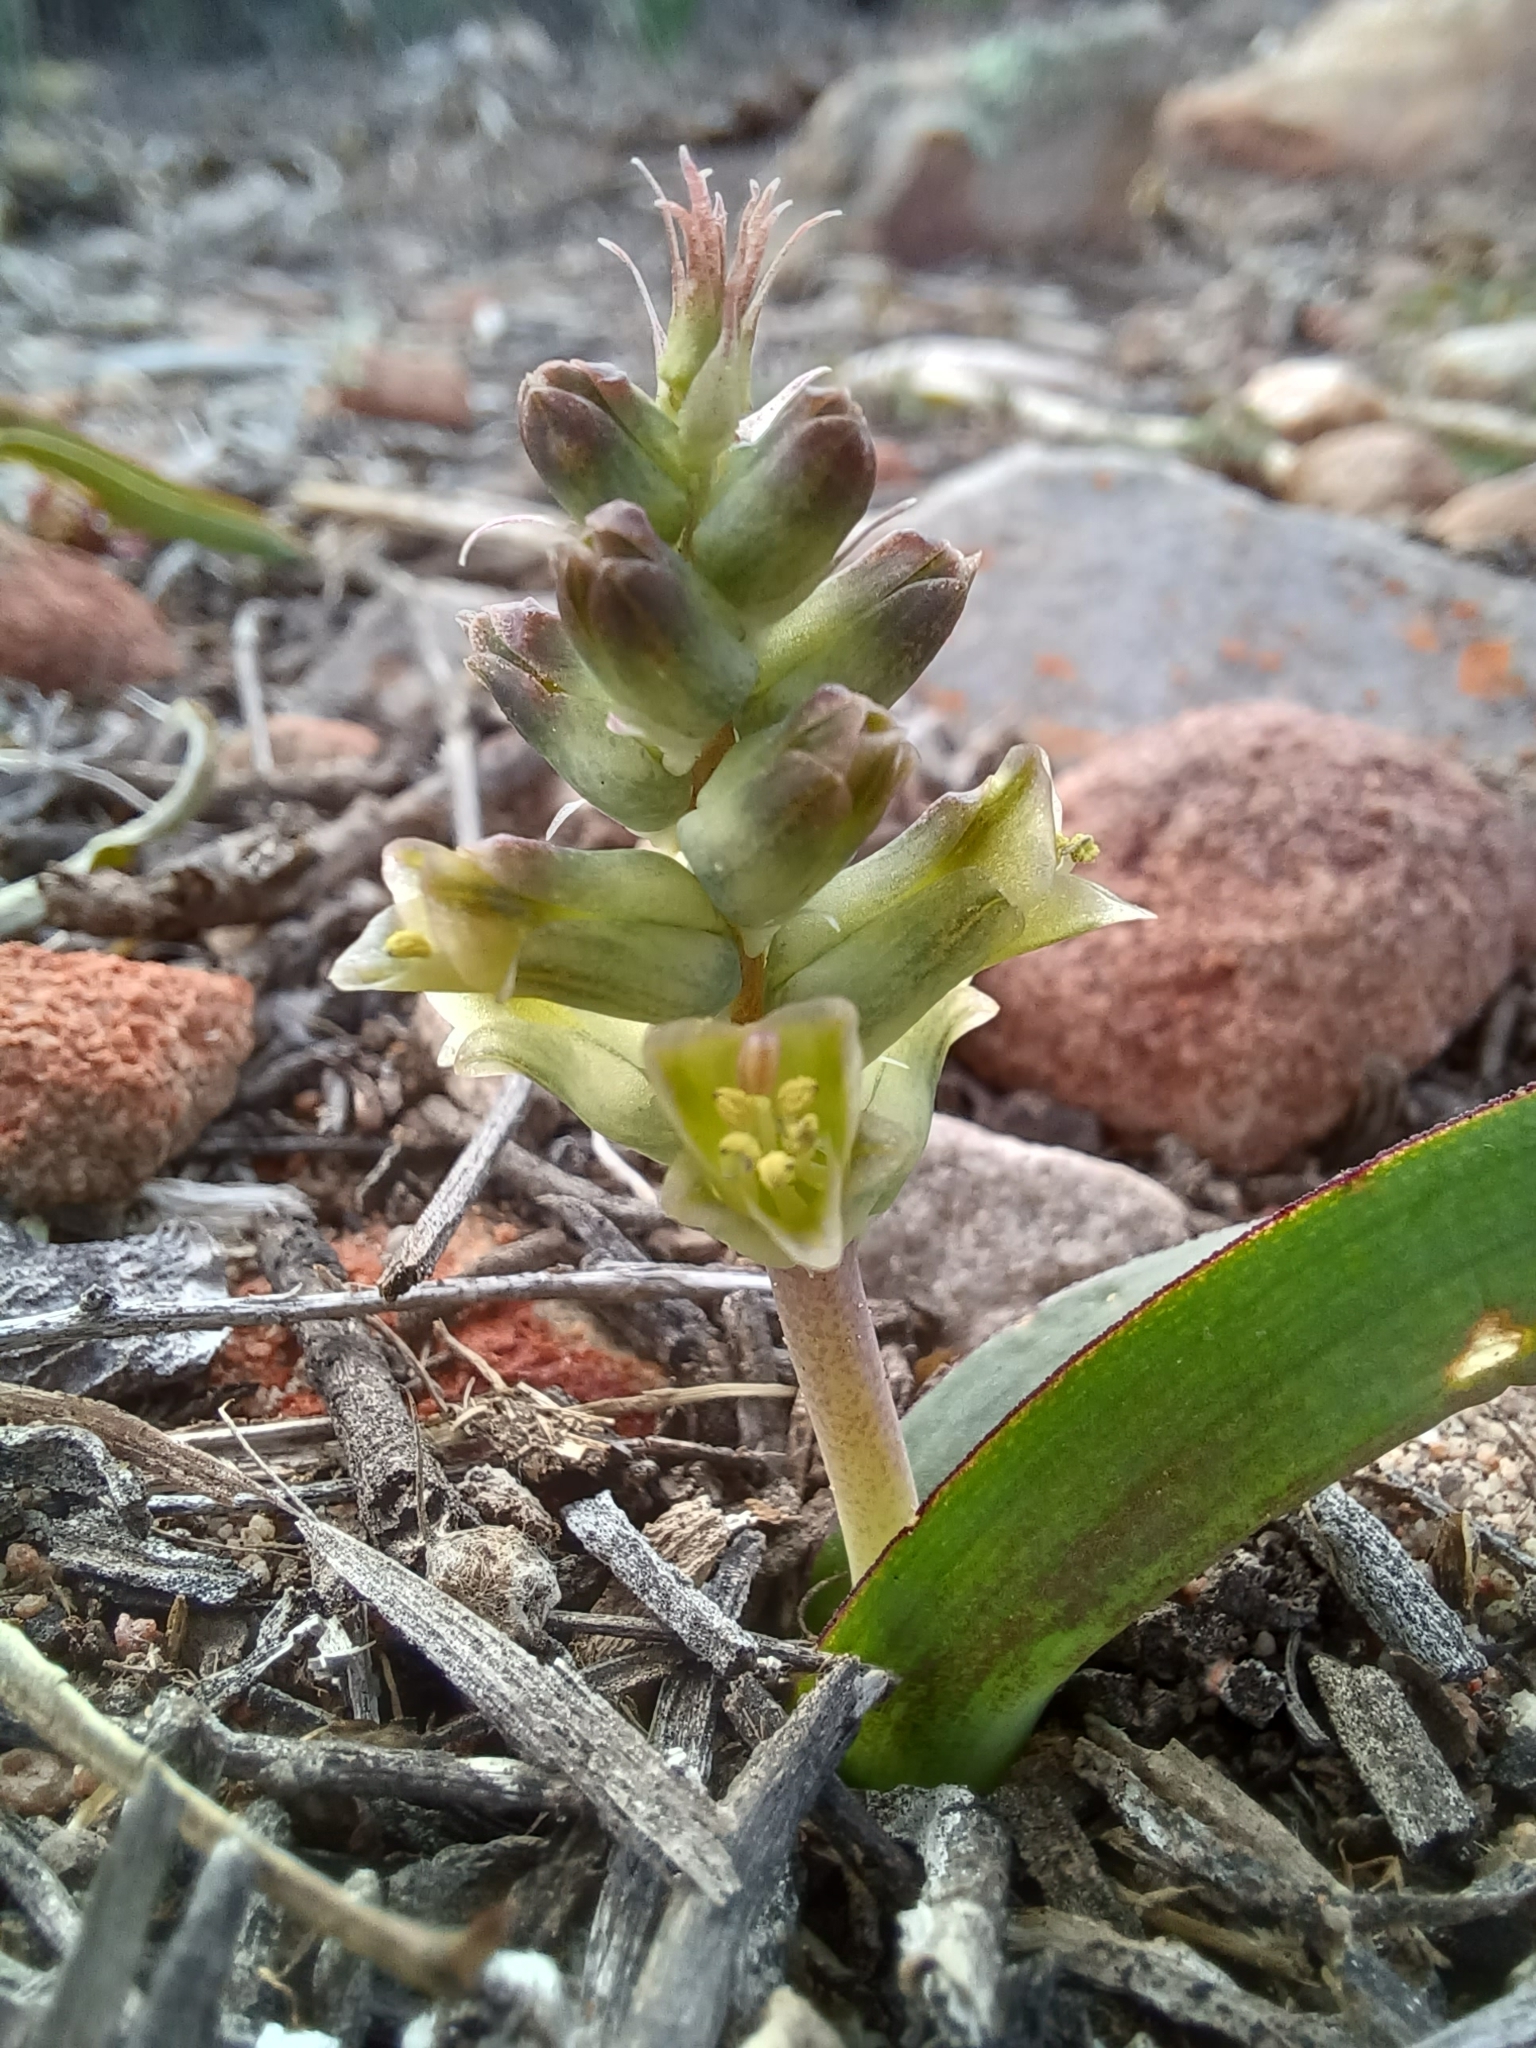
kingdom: Plantae
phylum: Tracheophyta
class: Liliopsida
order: Asparagales
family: Asparagaceae
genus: Lachenalia
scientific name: Lachenalia aurioliae
